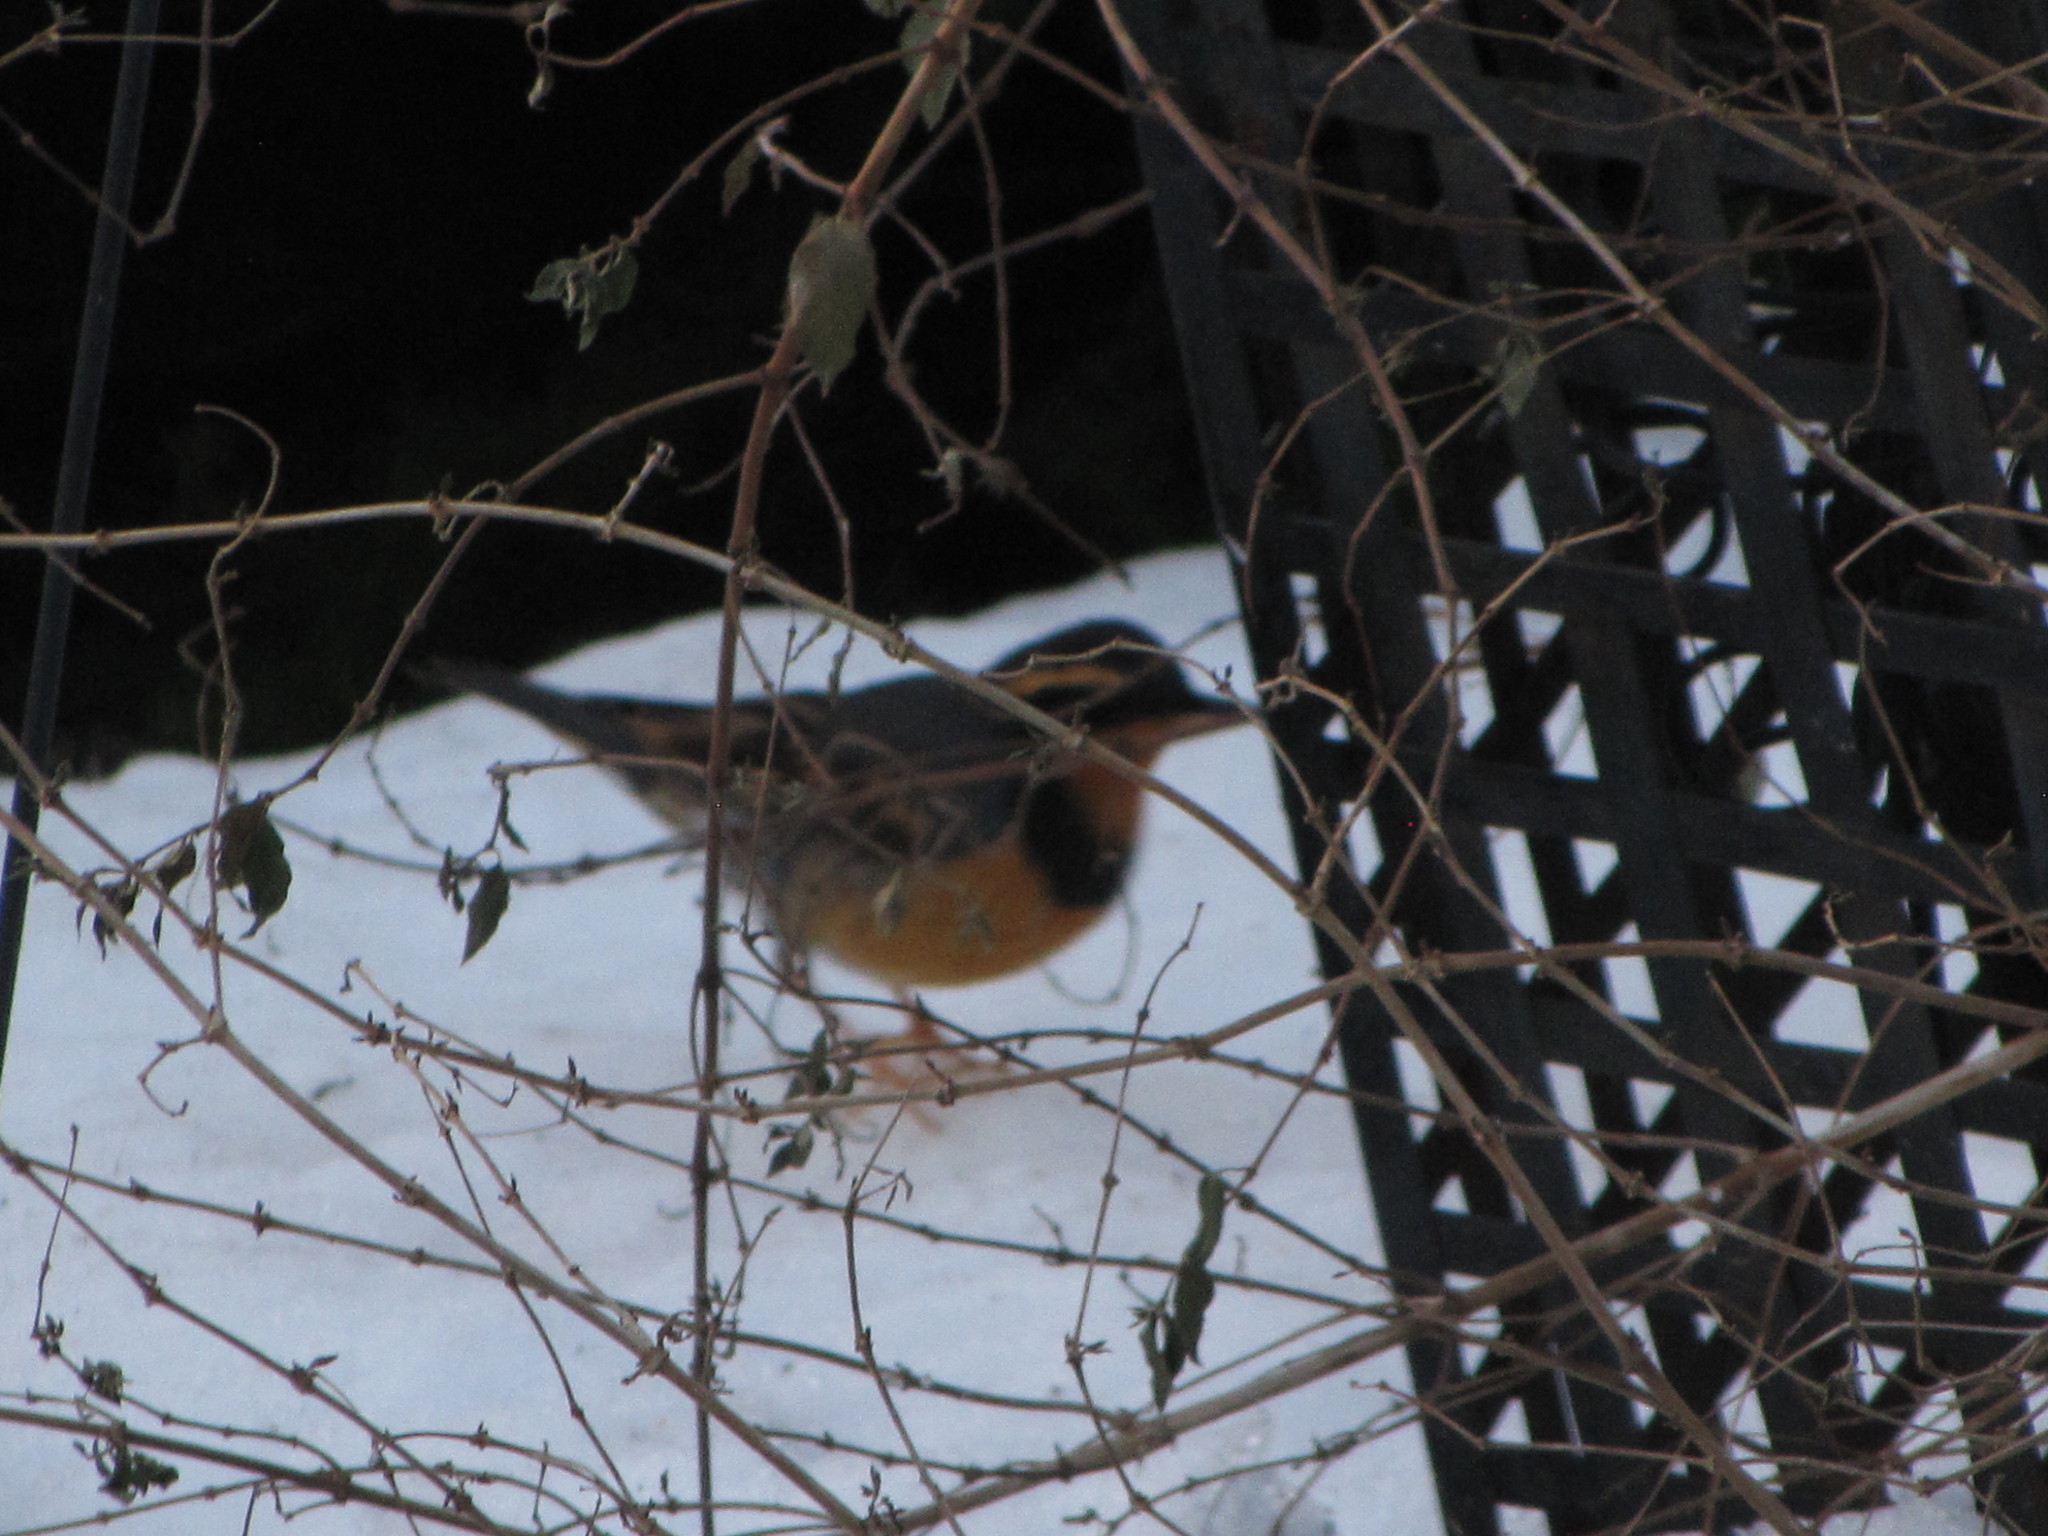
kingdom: Animalia
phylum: Chordata
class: Aves
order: Passeriformes
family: Turdidae
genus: Ixoreus
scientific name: Ixoreus naevius
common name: Varied thrush
